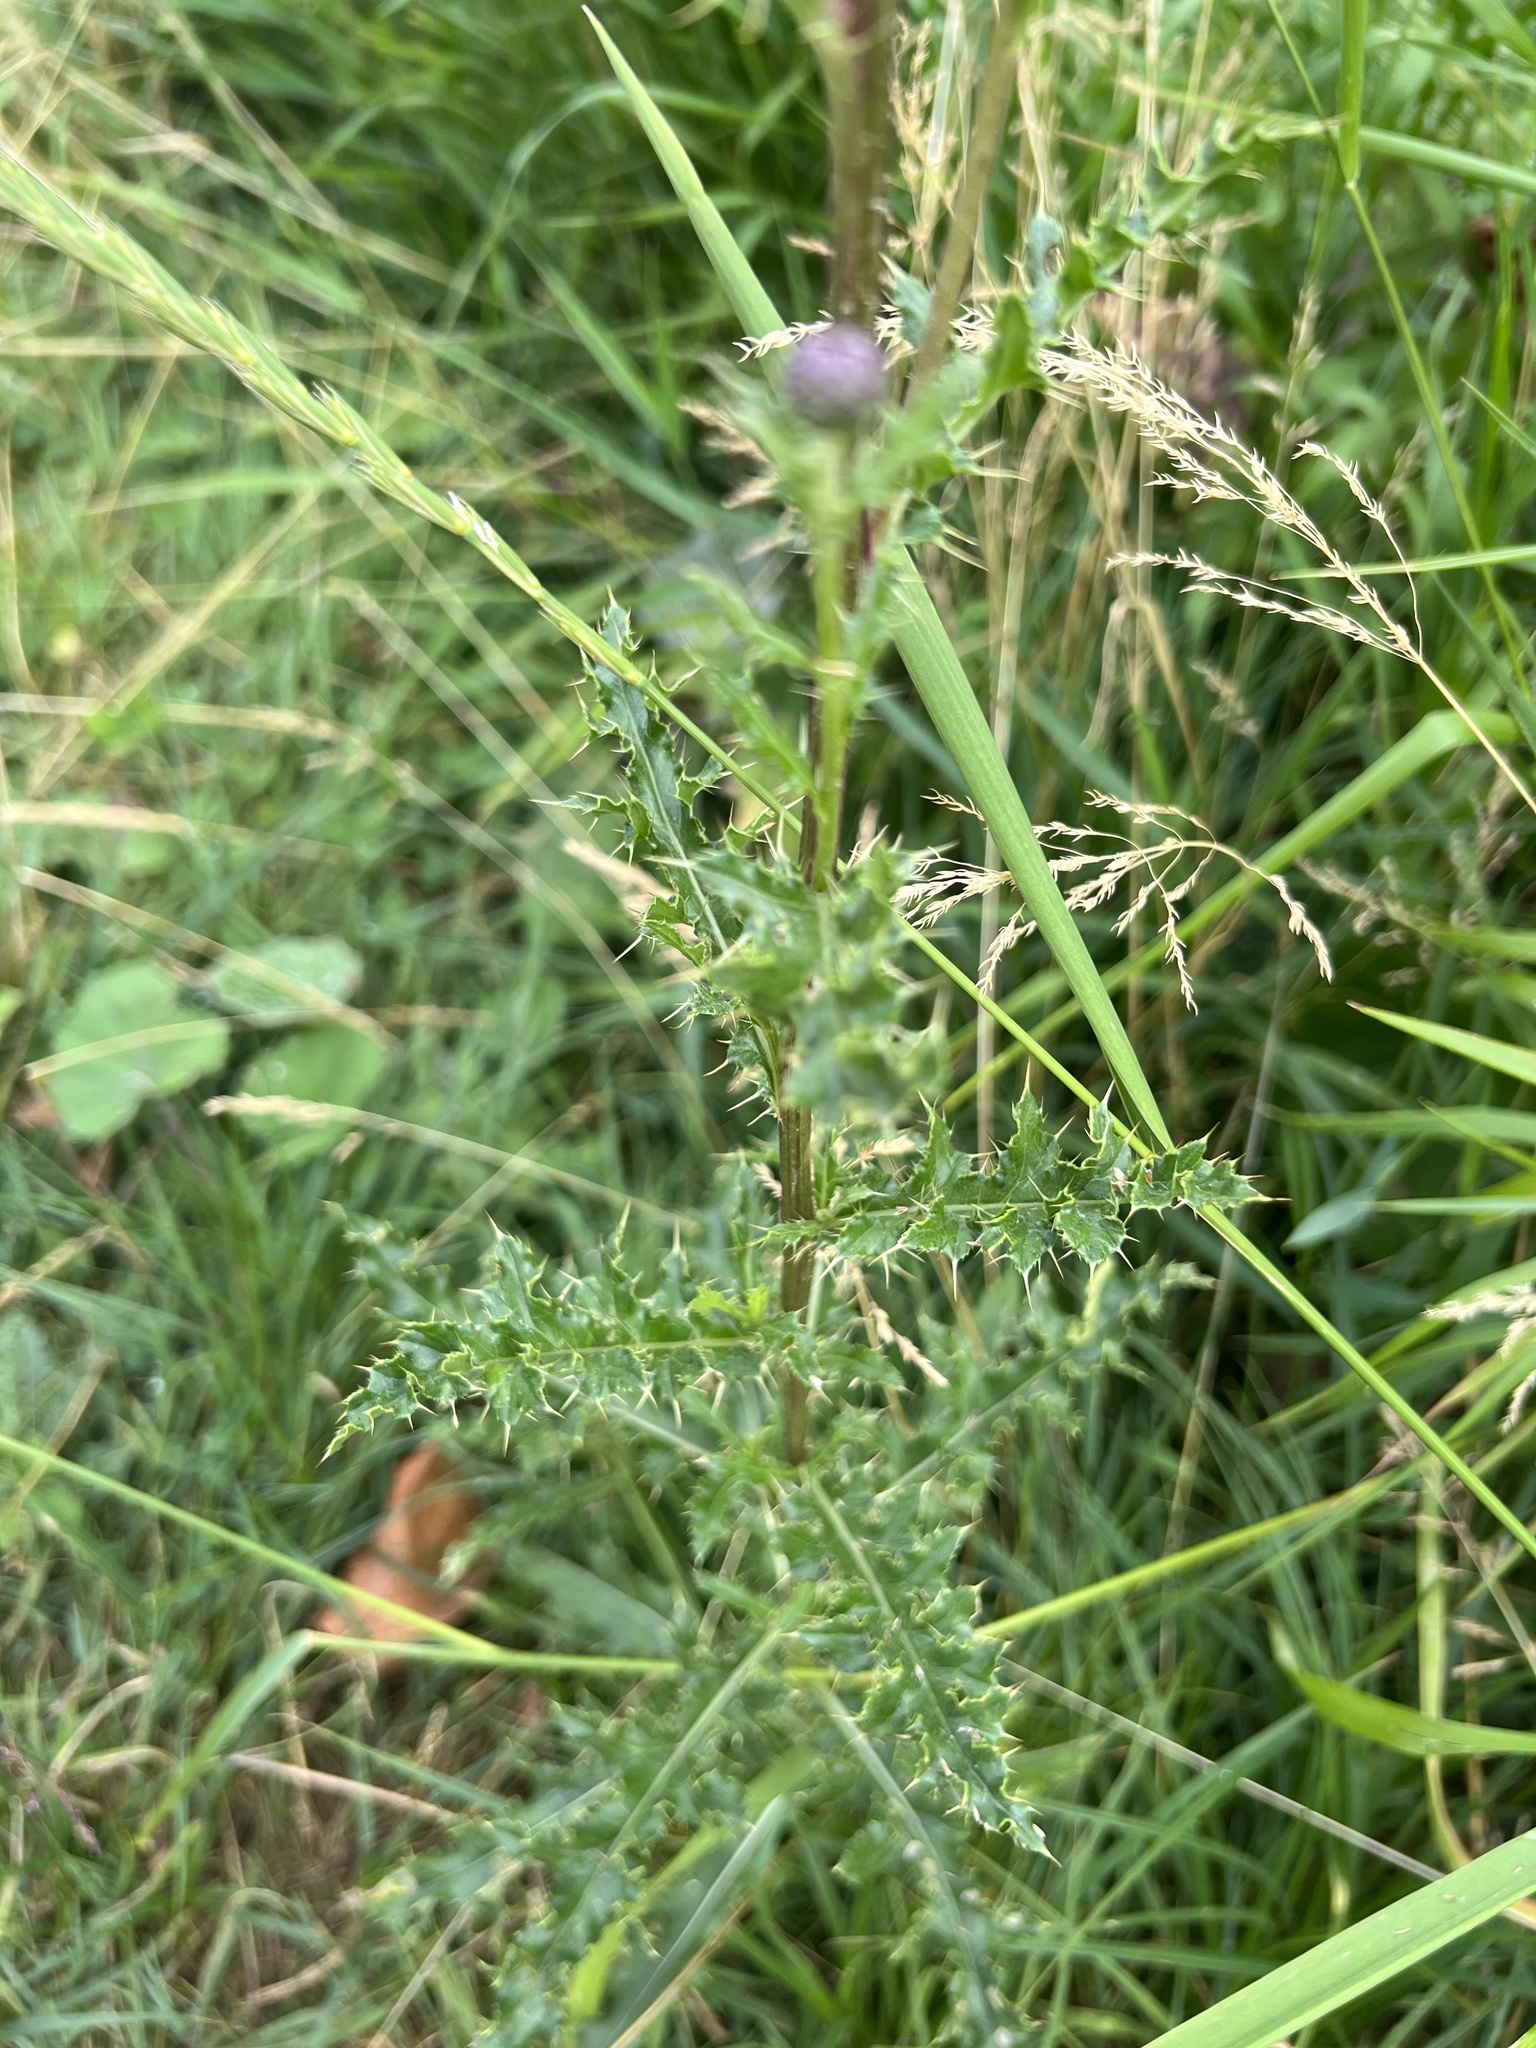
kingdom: Plantae
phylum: Tracheophyta
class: Magnoliopsida
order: Asterales
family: Asteraceae
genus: Cirsium
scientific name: Cirsium arvense
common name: Creeping thistle
